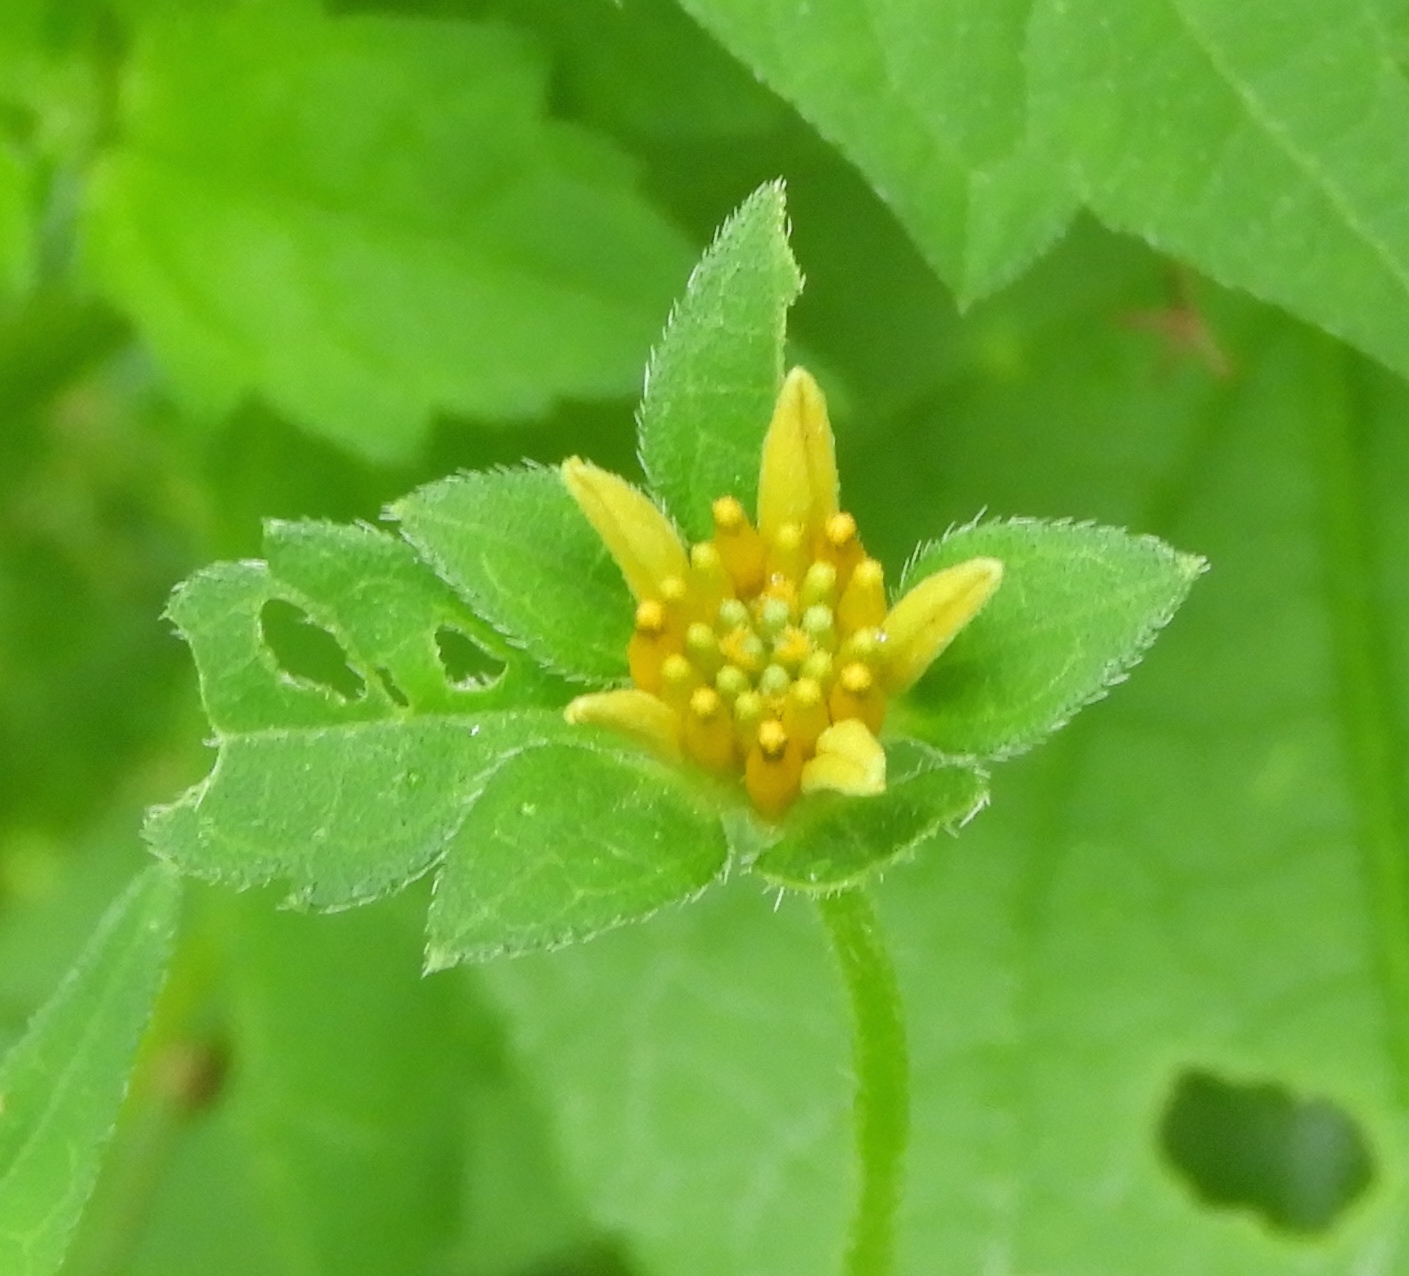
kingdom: Plantae
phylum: Tracheophyta
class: Magnoliopsida
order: Asterales
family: Asteraceae
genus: Sclerocarpus
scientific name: Sclerocarpus divaricatus
